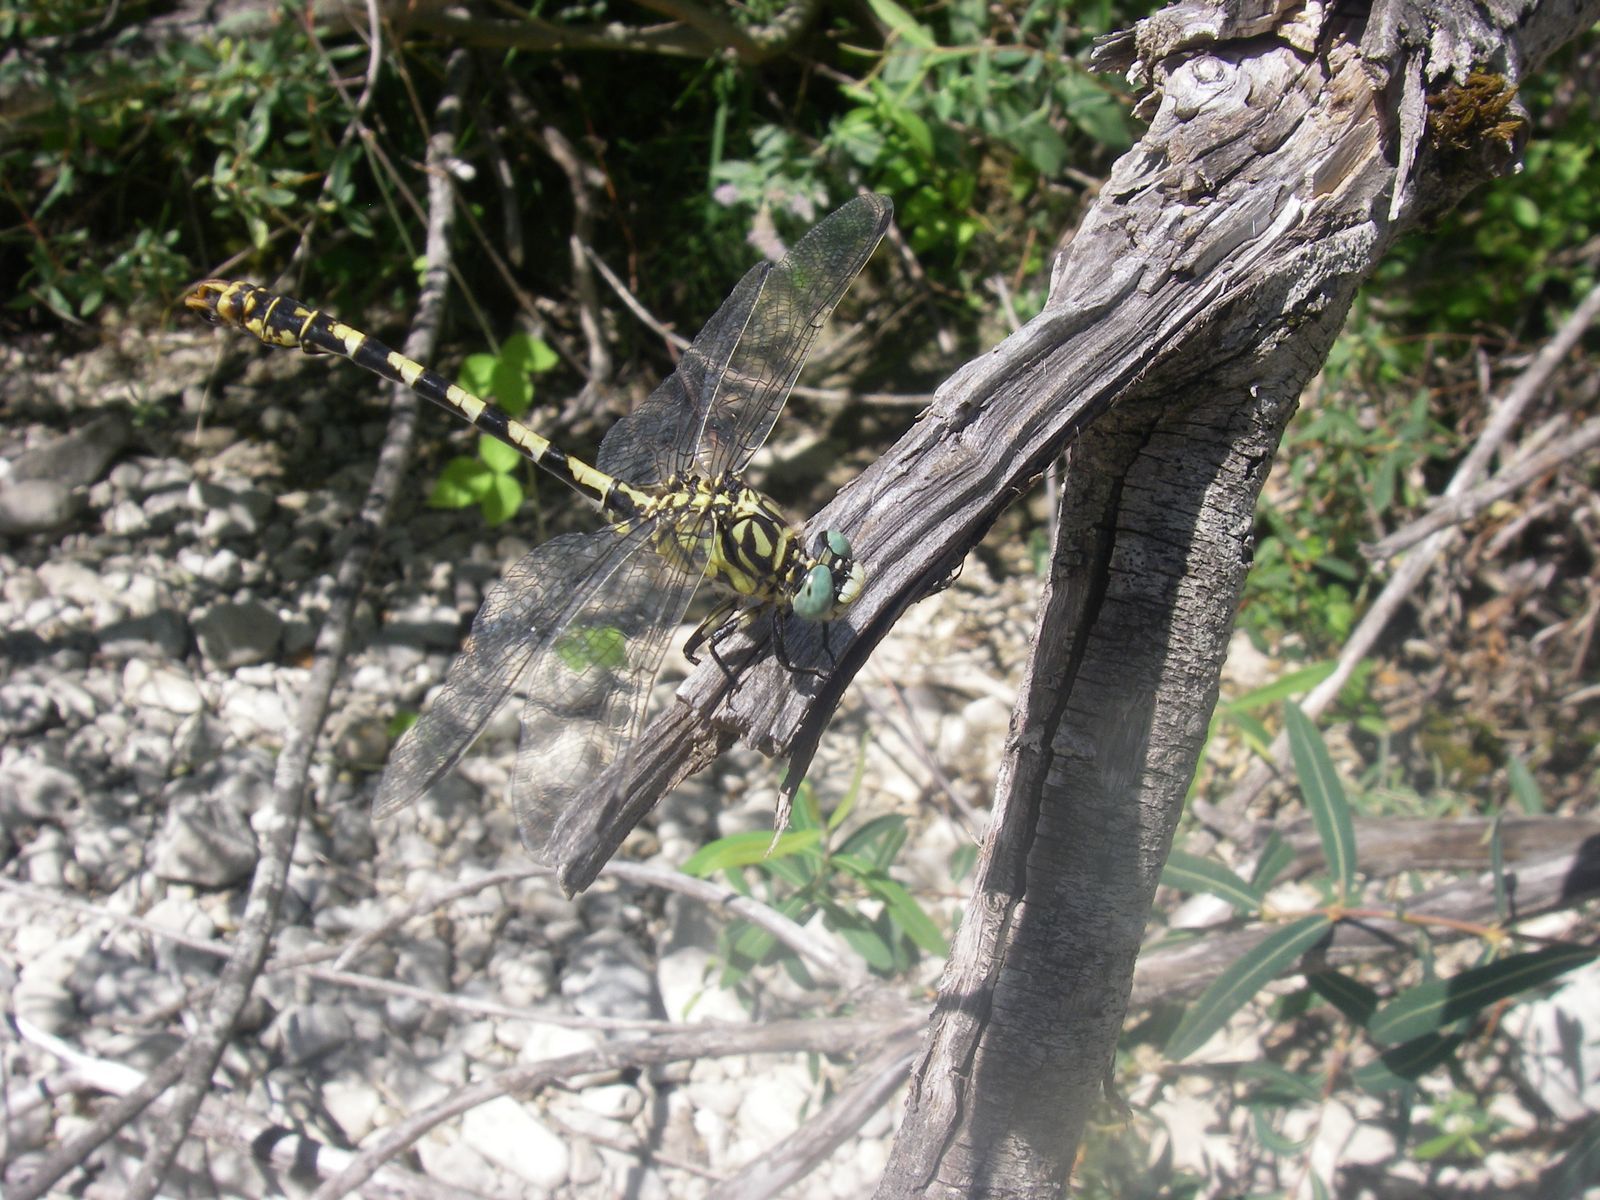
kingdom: Animalia
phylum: Arthropoda
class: Insecta
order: Odonata
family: Gomphidae
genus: Onychogomphus
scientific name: Onychogomphus forcipatus
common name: Small pincertail
